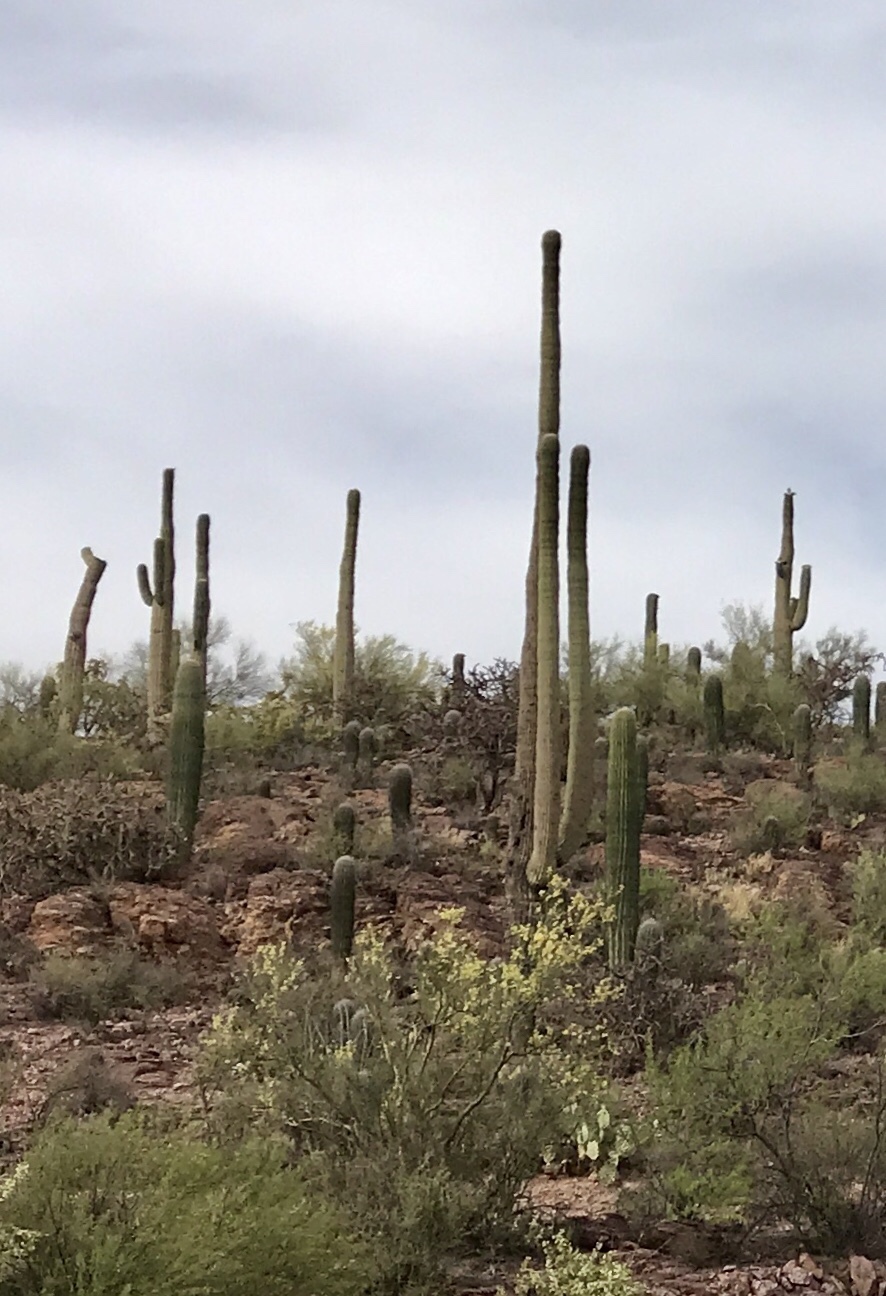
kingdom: Plantae
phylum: Tracheophyta
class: Magnoliopsida
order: Caryophyllales
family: Cactaceae
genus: Carnegiea
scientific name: Carnegiea gigantea
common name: Saguaro
